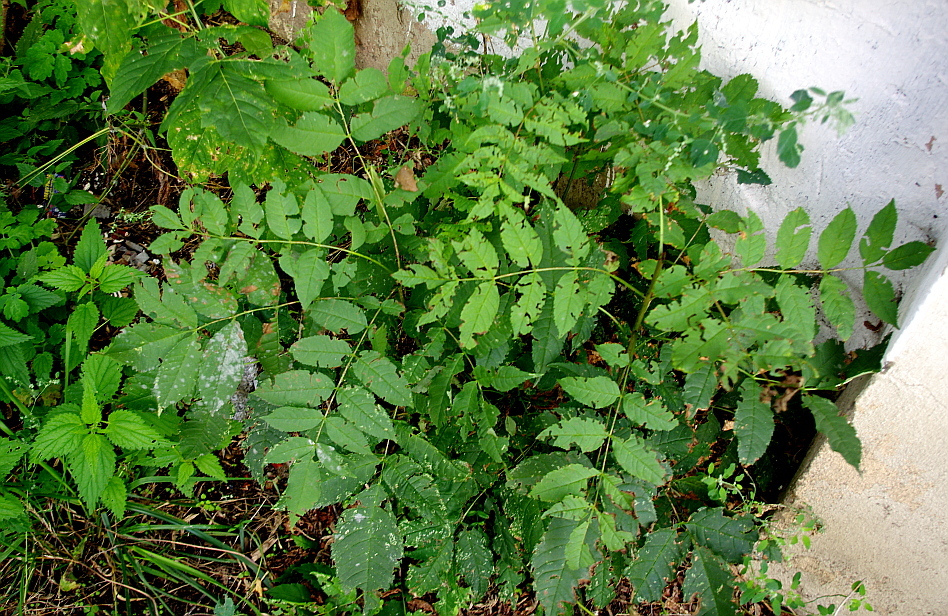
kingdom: Plantae
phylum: Tracheophyta
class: Magnoliopsida
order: Lamiales
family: Oleaceae
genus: Fraxinus
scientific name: Fraxinus excelsior
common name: European ash
